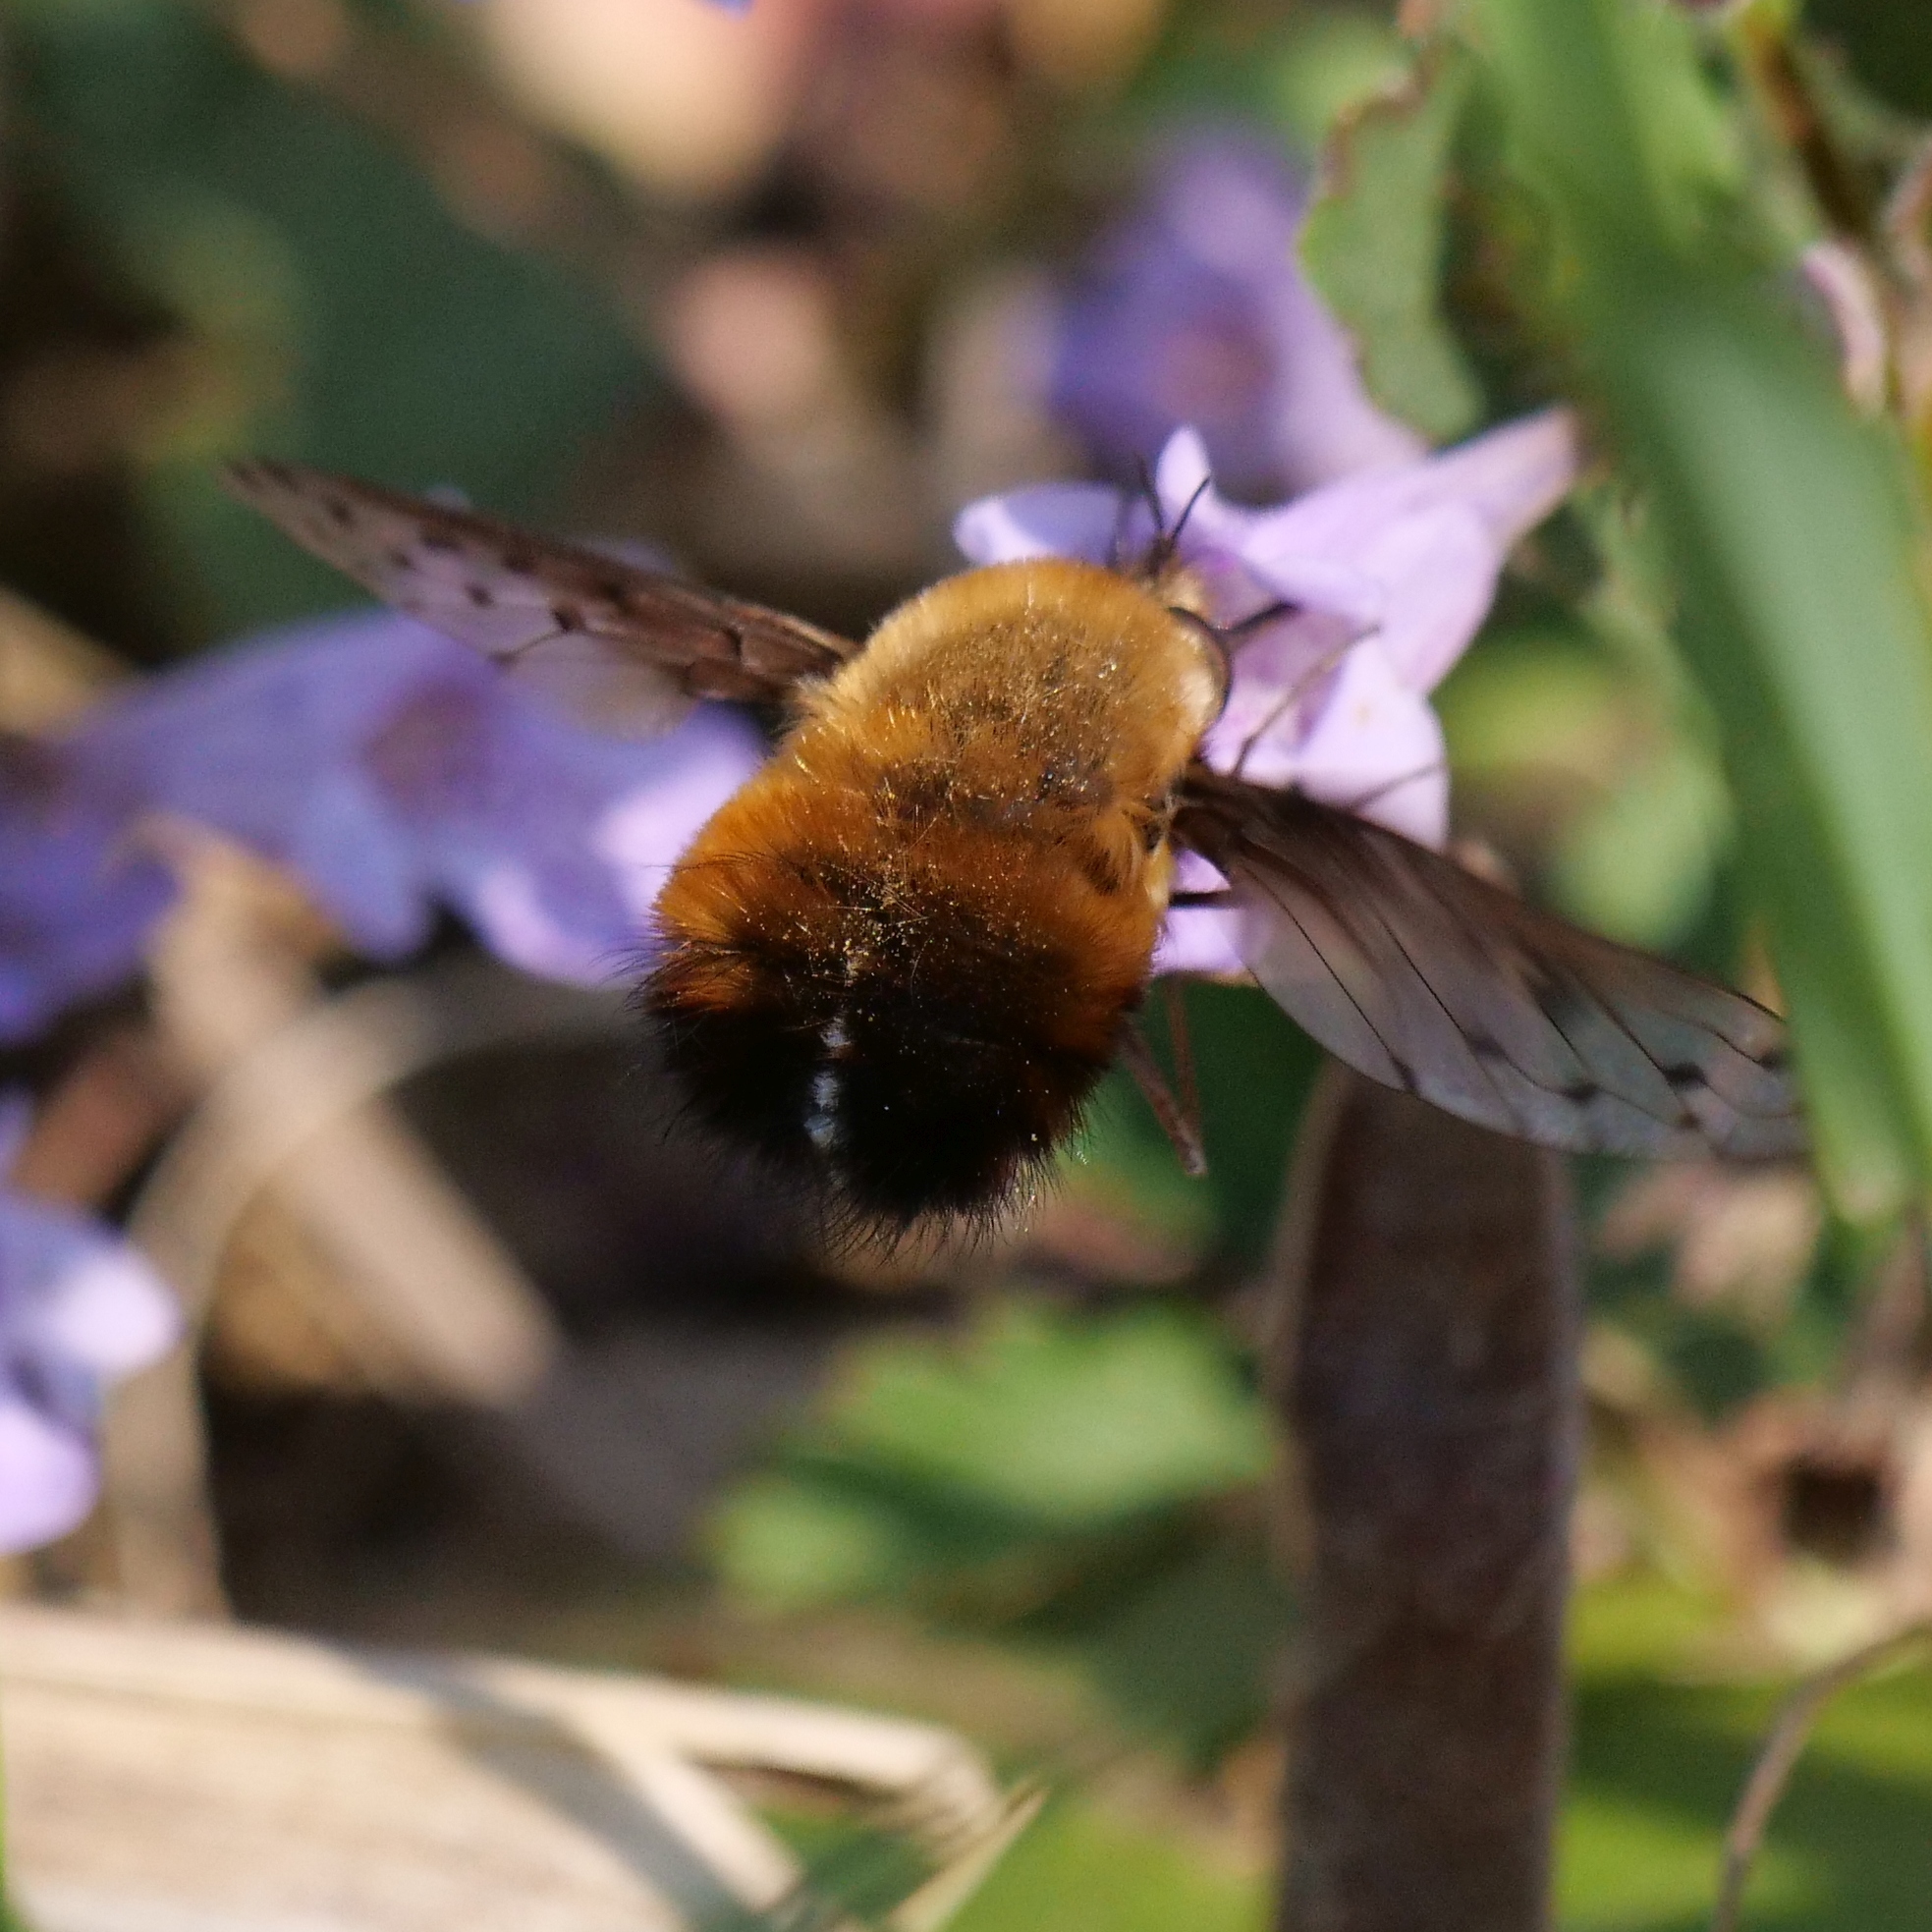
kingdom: Animalia
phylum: Arthropoda
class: Insecta
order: Diptera
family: Bombyliidae
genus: Bombylius
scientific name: Bombylius discolor
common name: Dotted bee-fly
